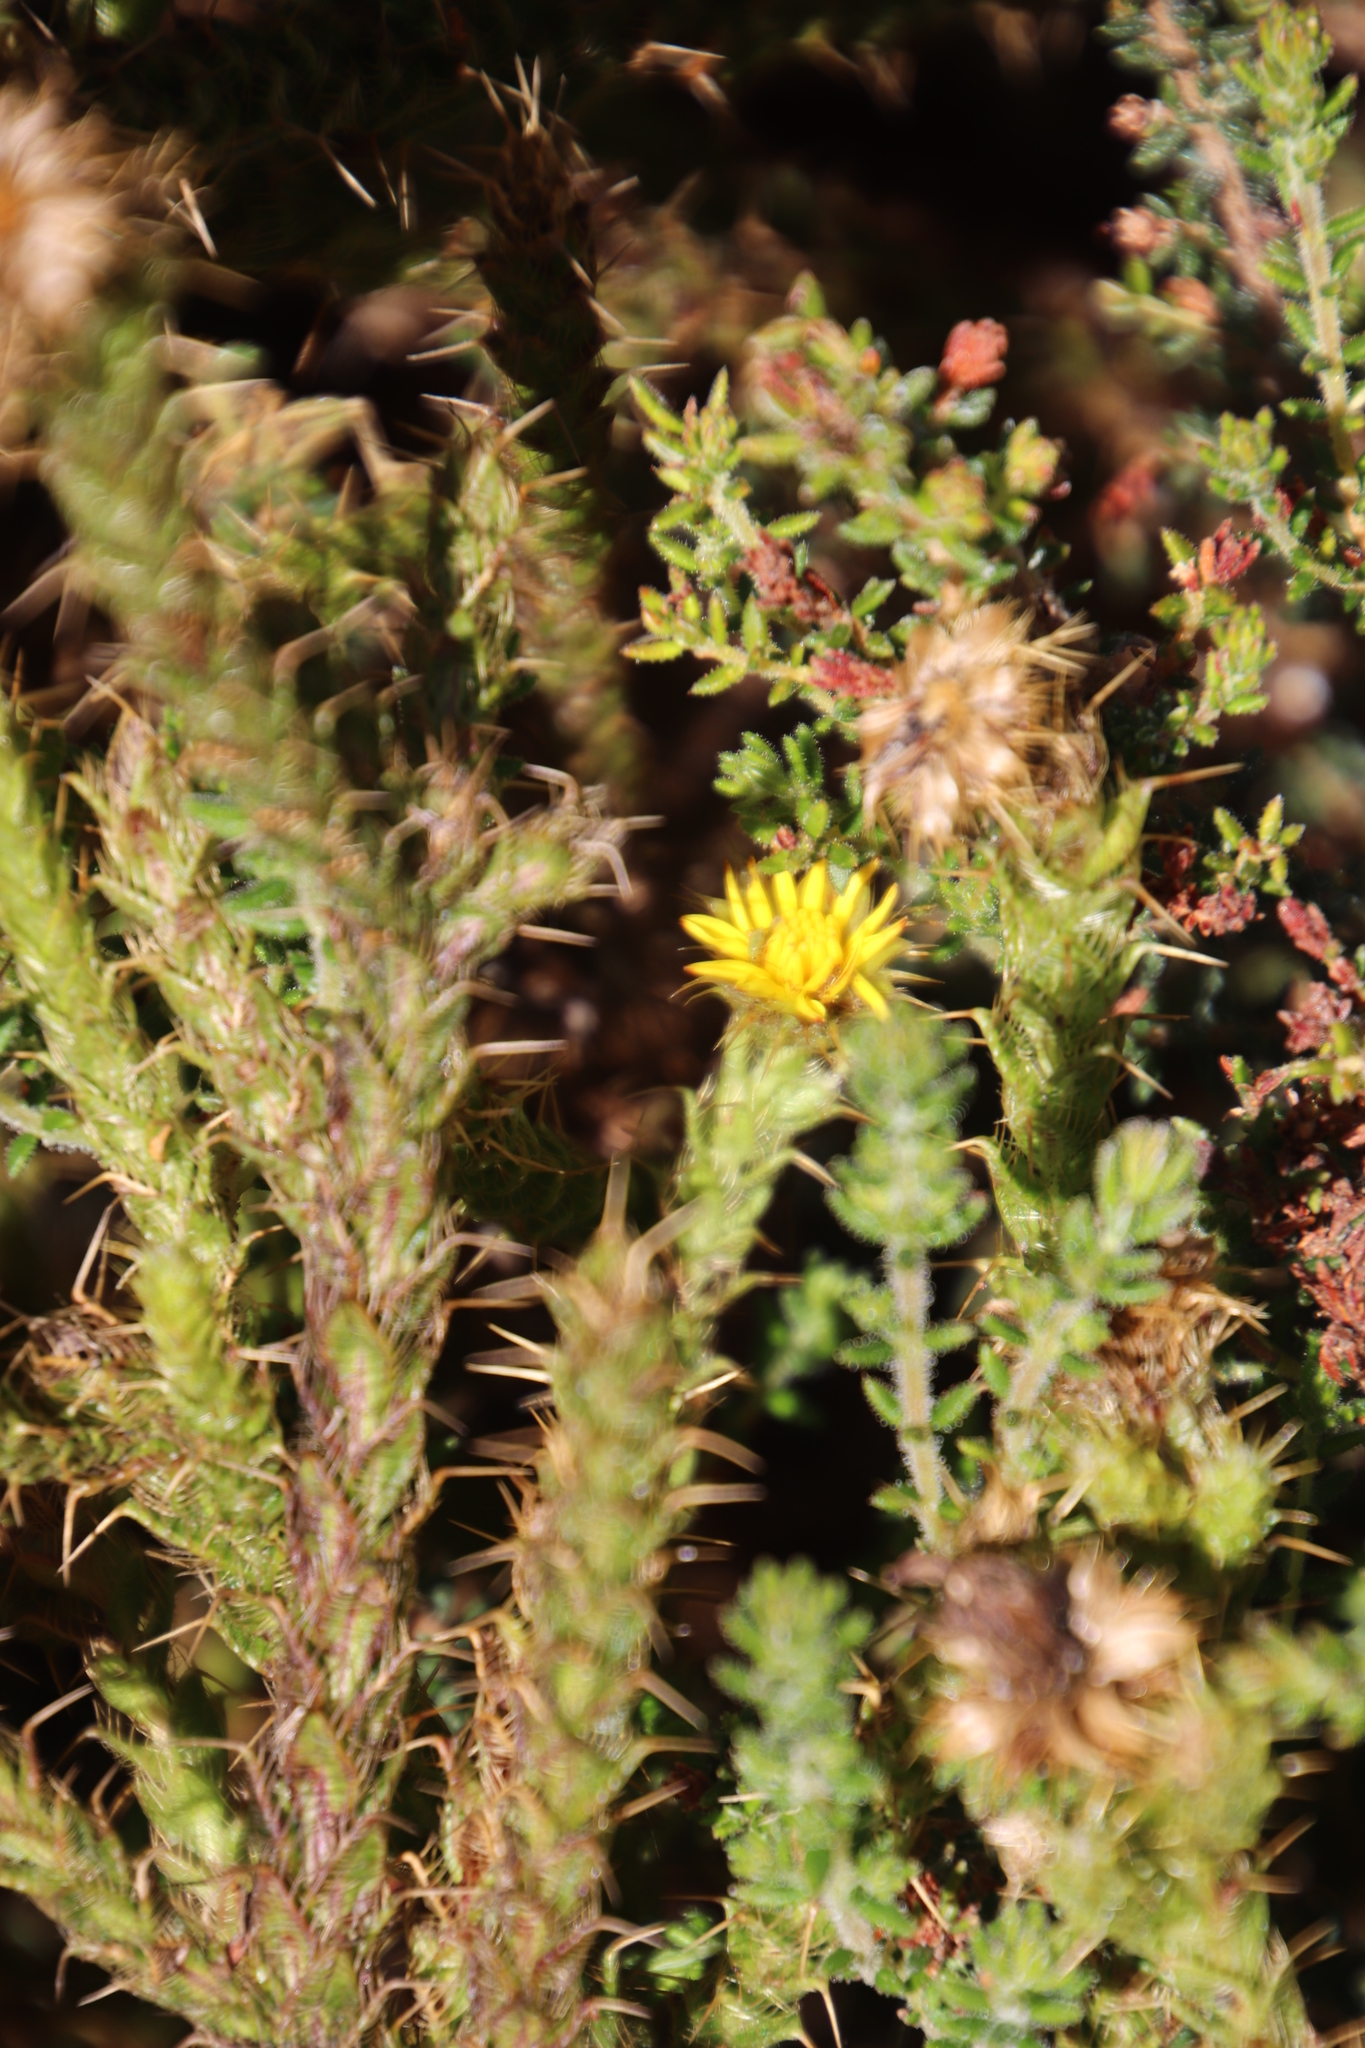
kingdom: Plantae
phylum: Tracheophyta
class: Magnoliopsida
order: Asterales
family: Asteraceae
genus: Cullumia
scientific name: Cullumia reticulata
